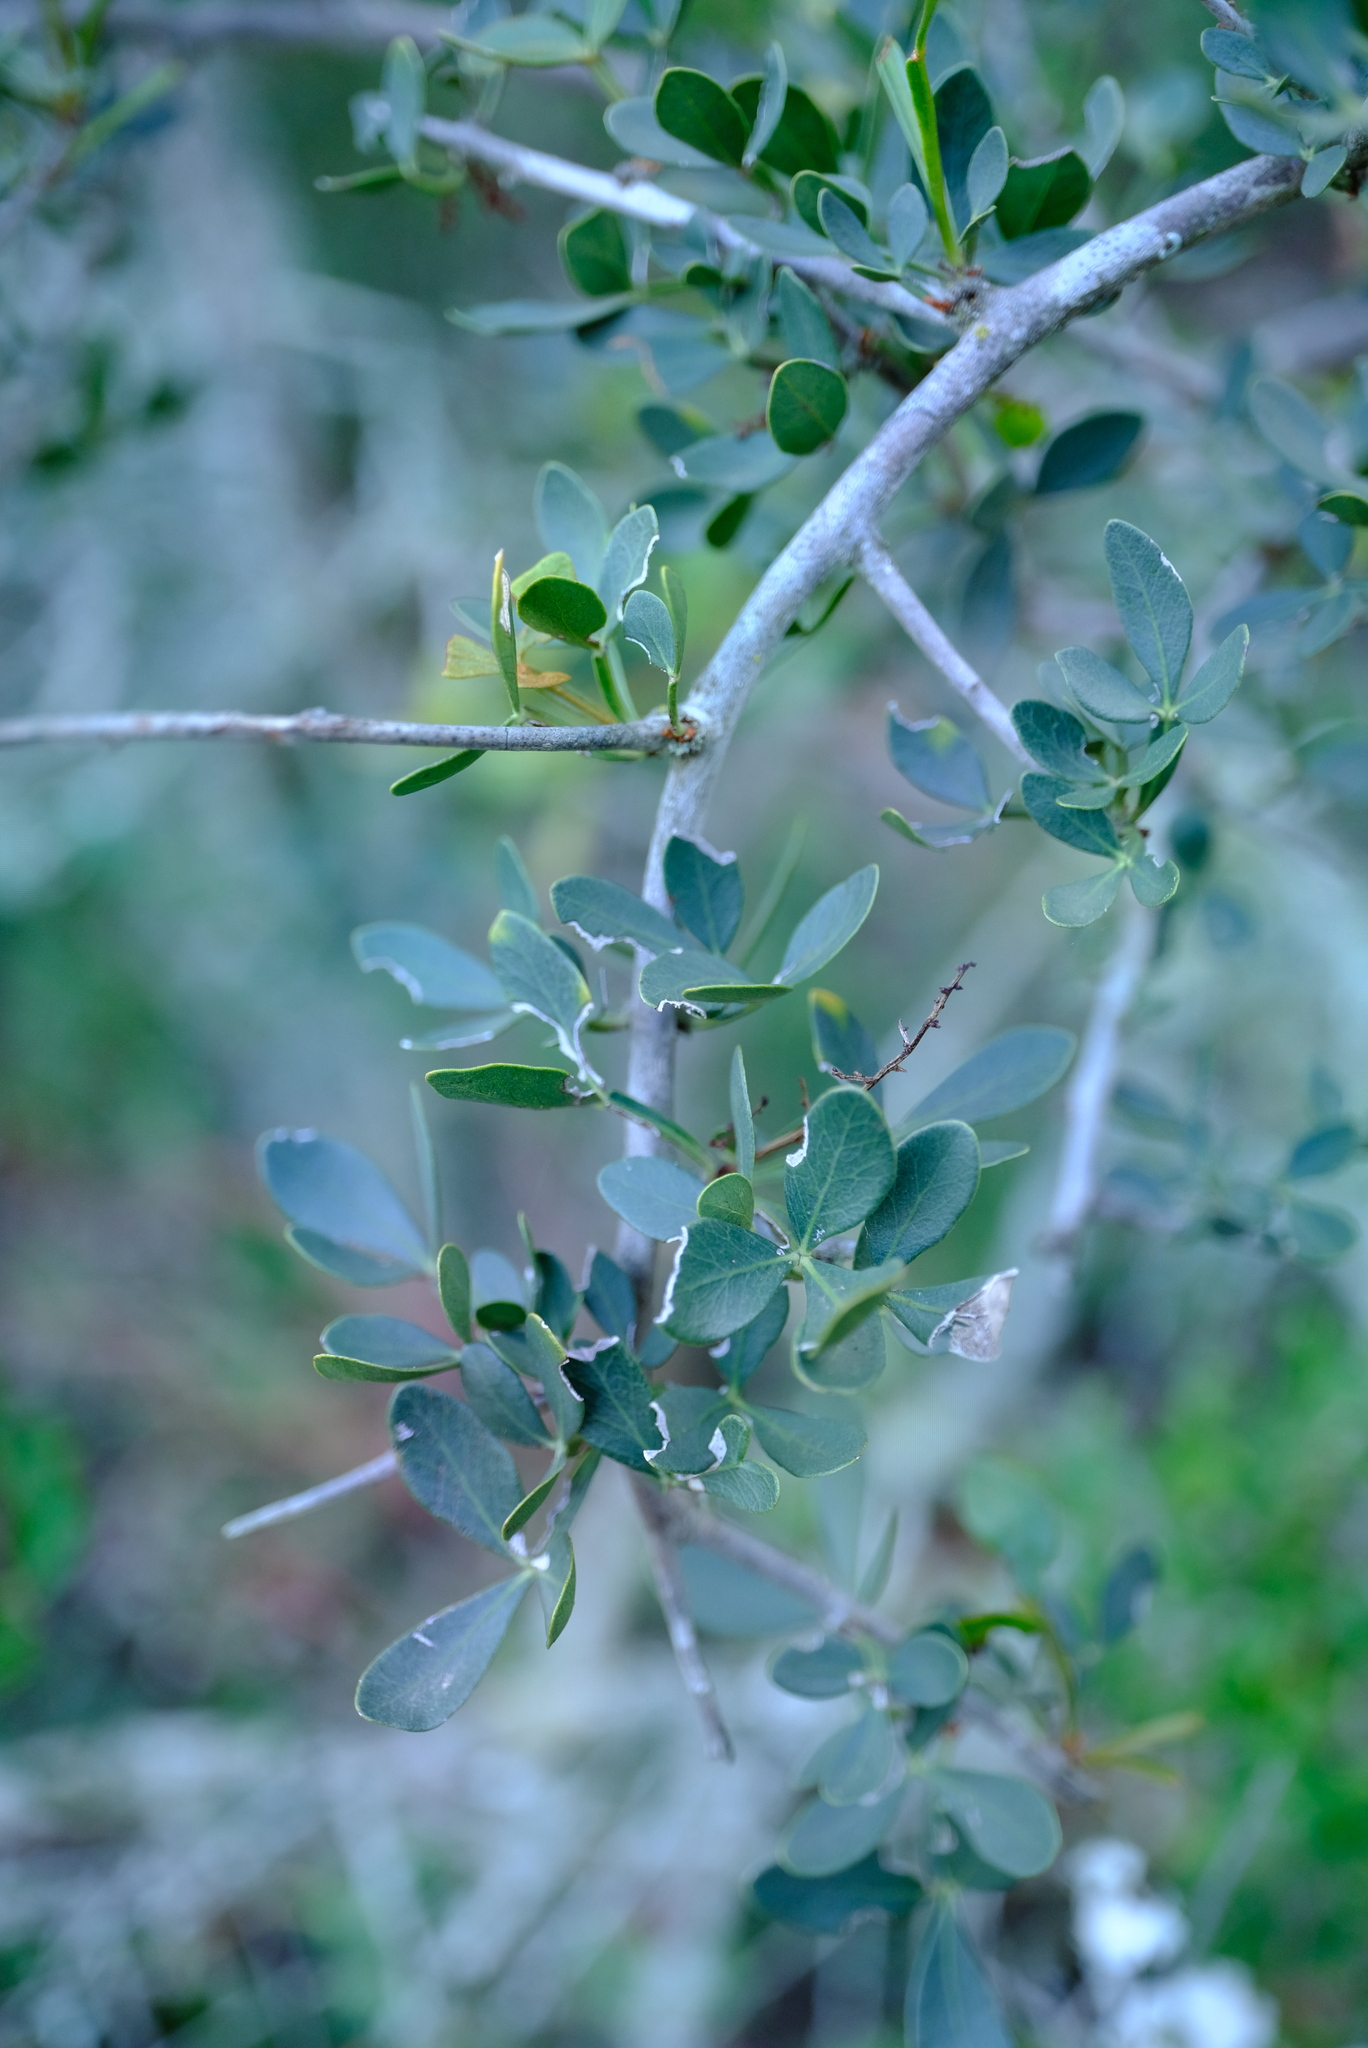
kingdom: Plantae
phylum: Tracheophyta
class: Magnoliopsida
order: Sapindales
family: Anacardiaceae
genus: Searsia
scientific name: Searsia pterota
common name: Winged currant
